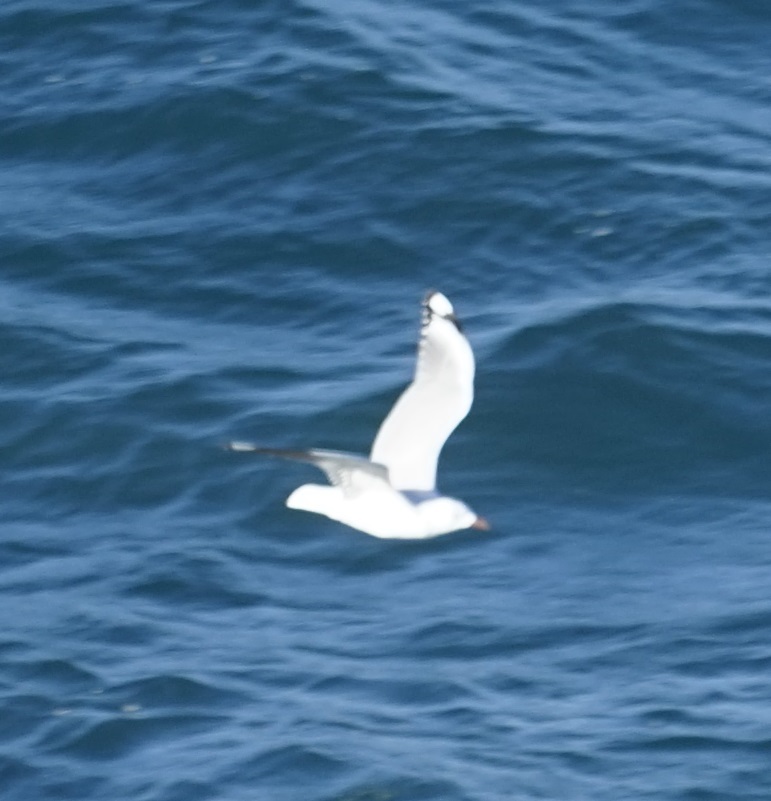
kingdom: Animalia
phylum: Chordata
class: Aves
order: Charadriiformes
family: Laridae
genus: Chroicocephalus
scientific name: Chroicocephalus novaehollandiae
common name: Silver gull
